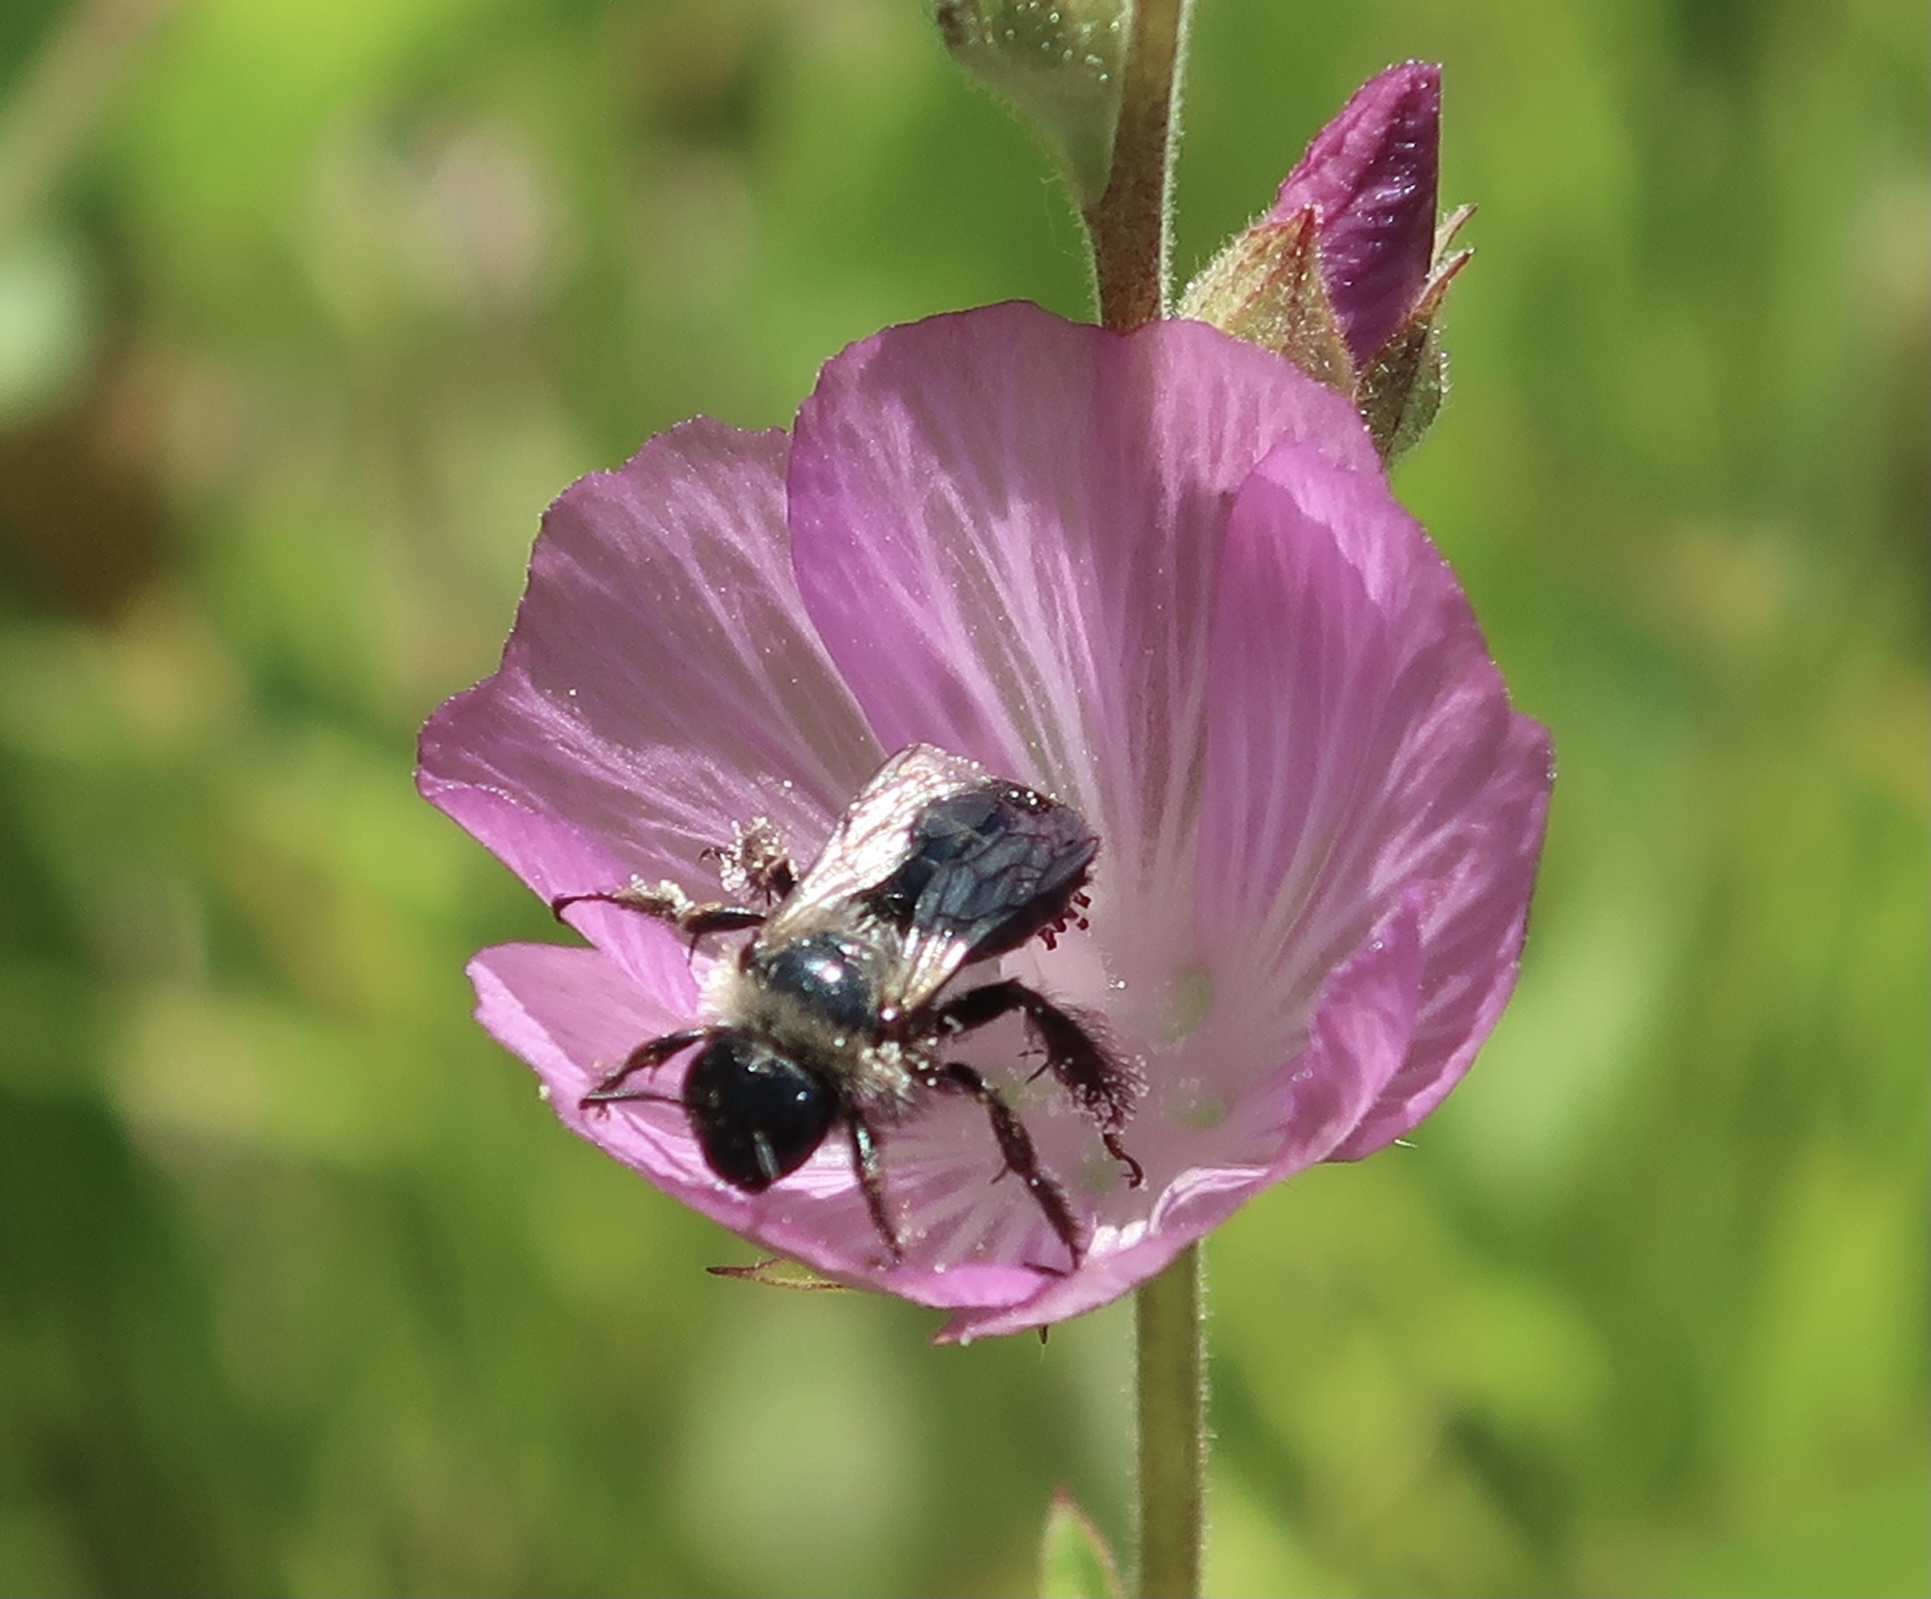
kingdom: Animalia
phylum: Arthropoda
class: Insecta
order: Hymenoptera
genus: Coquillettapis
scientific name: Coquillettapis
